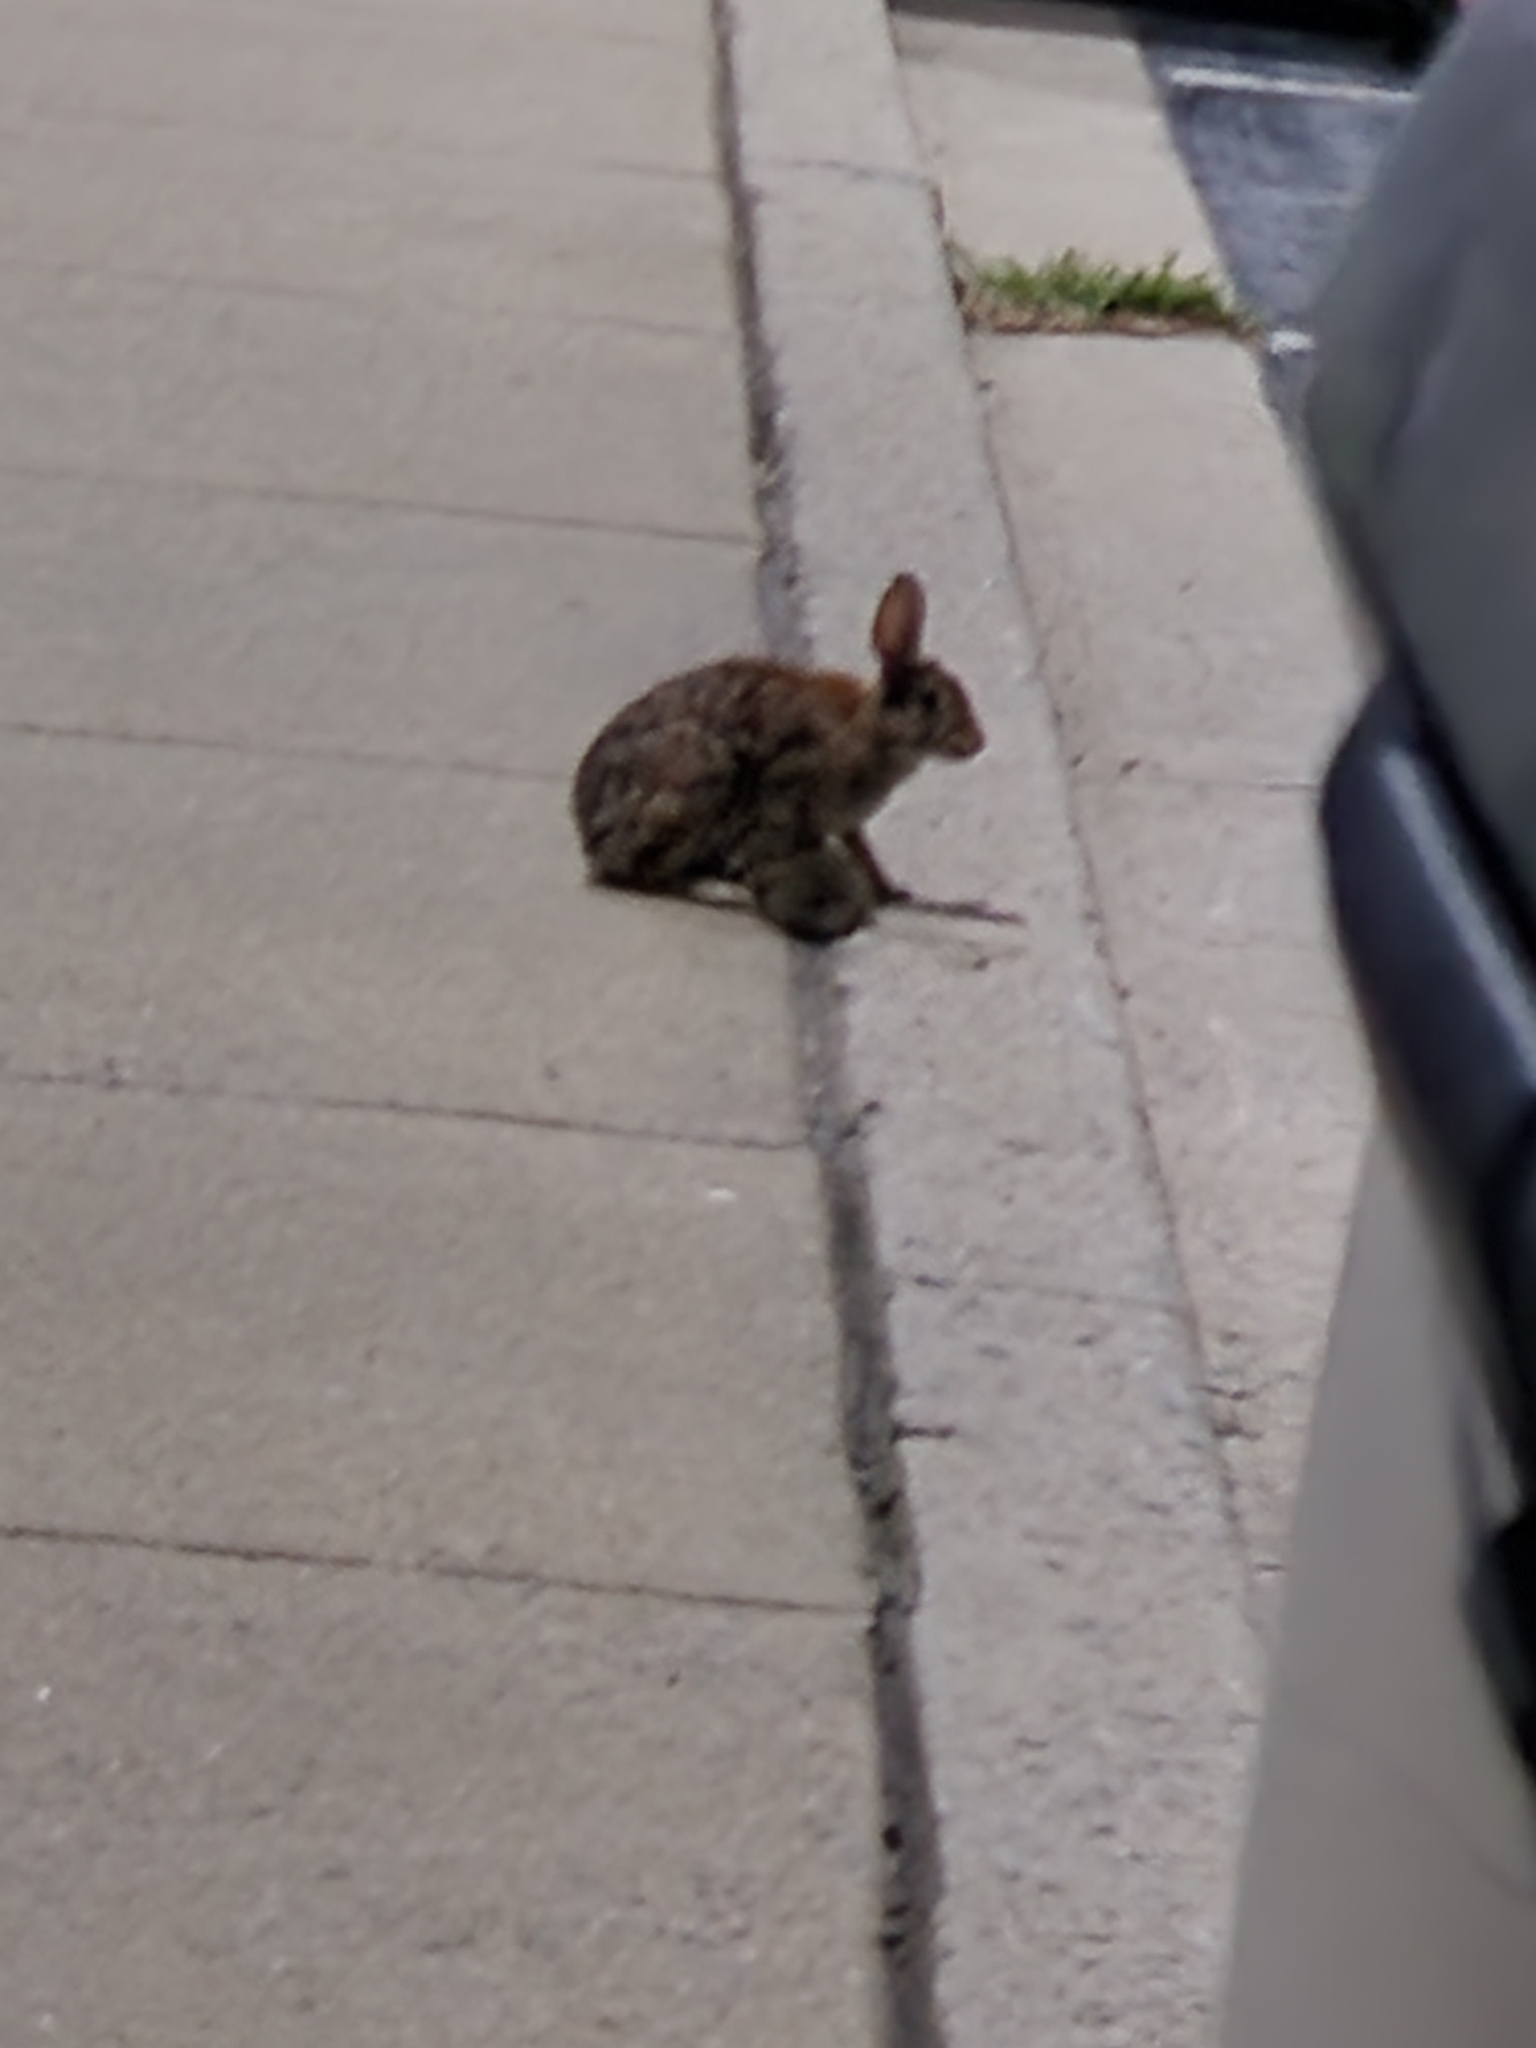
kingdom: Animalia
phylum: Chordata
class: Mammalia
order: Lagomorpha
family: Leporidae
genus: Sylvilagus
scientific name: Sylvilagus floridanus
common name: Eastern cottontail
